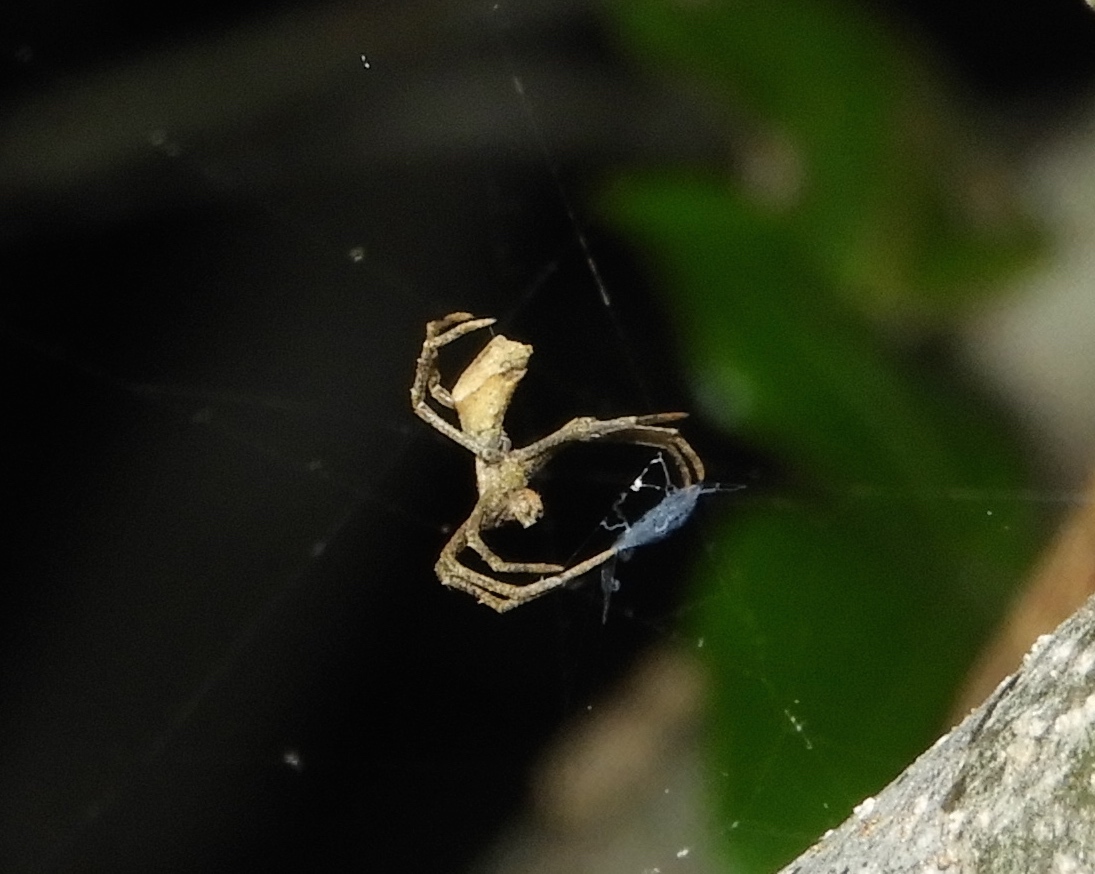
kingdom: Animalia
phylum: Arthropoda
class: Arachnida
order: Araneae
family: Deinopidae
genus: Deinopis
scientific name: Deinopis aurita
